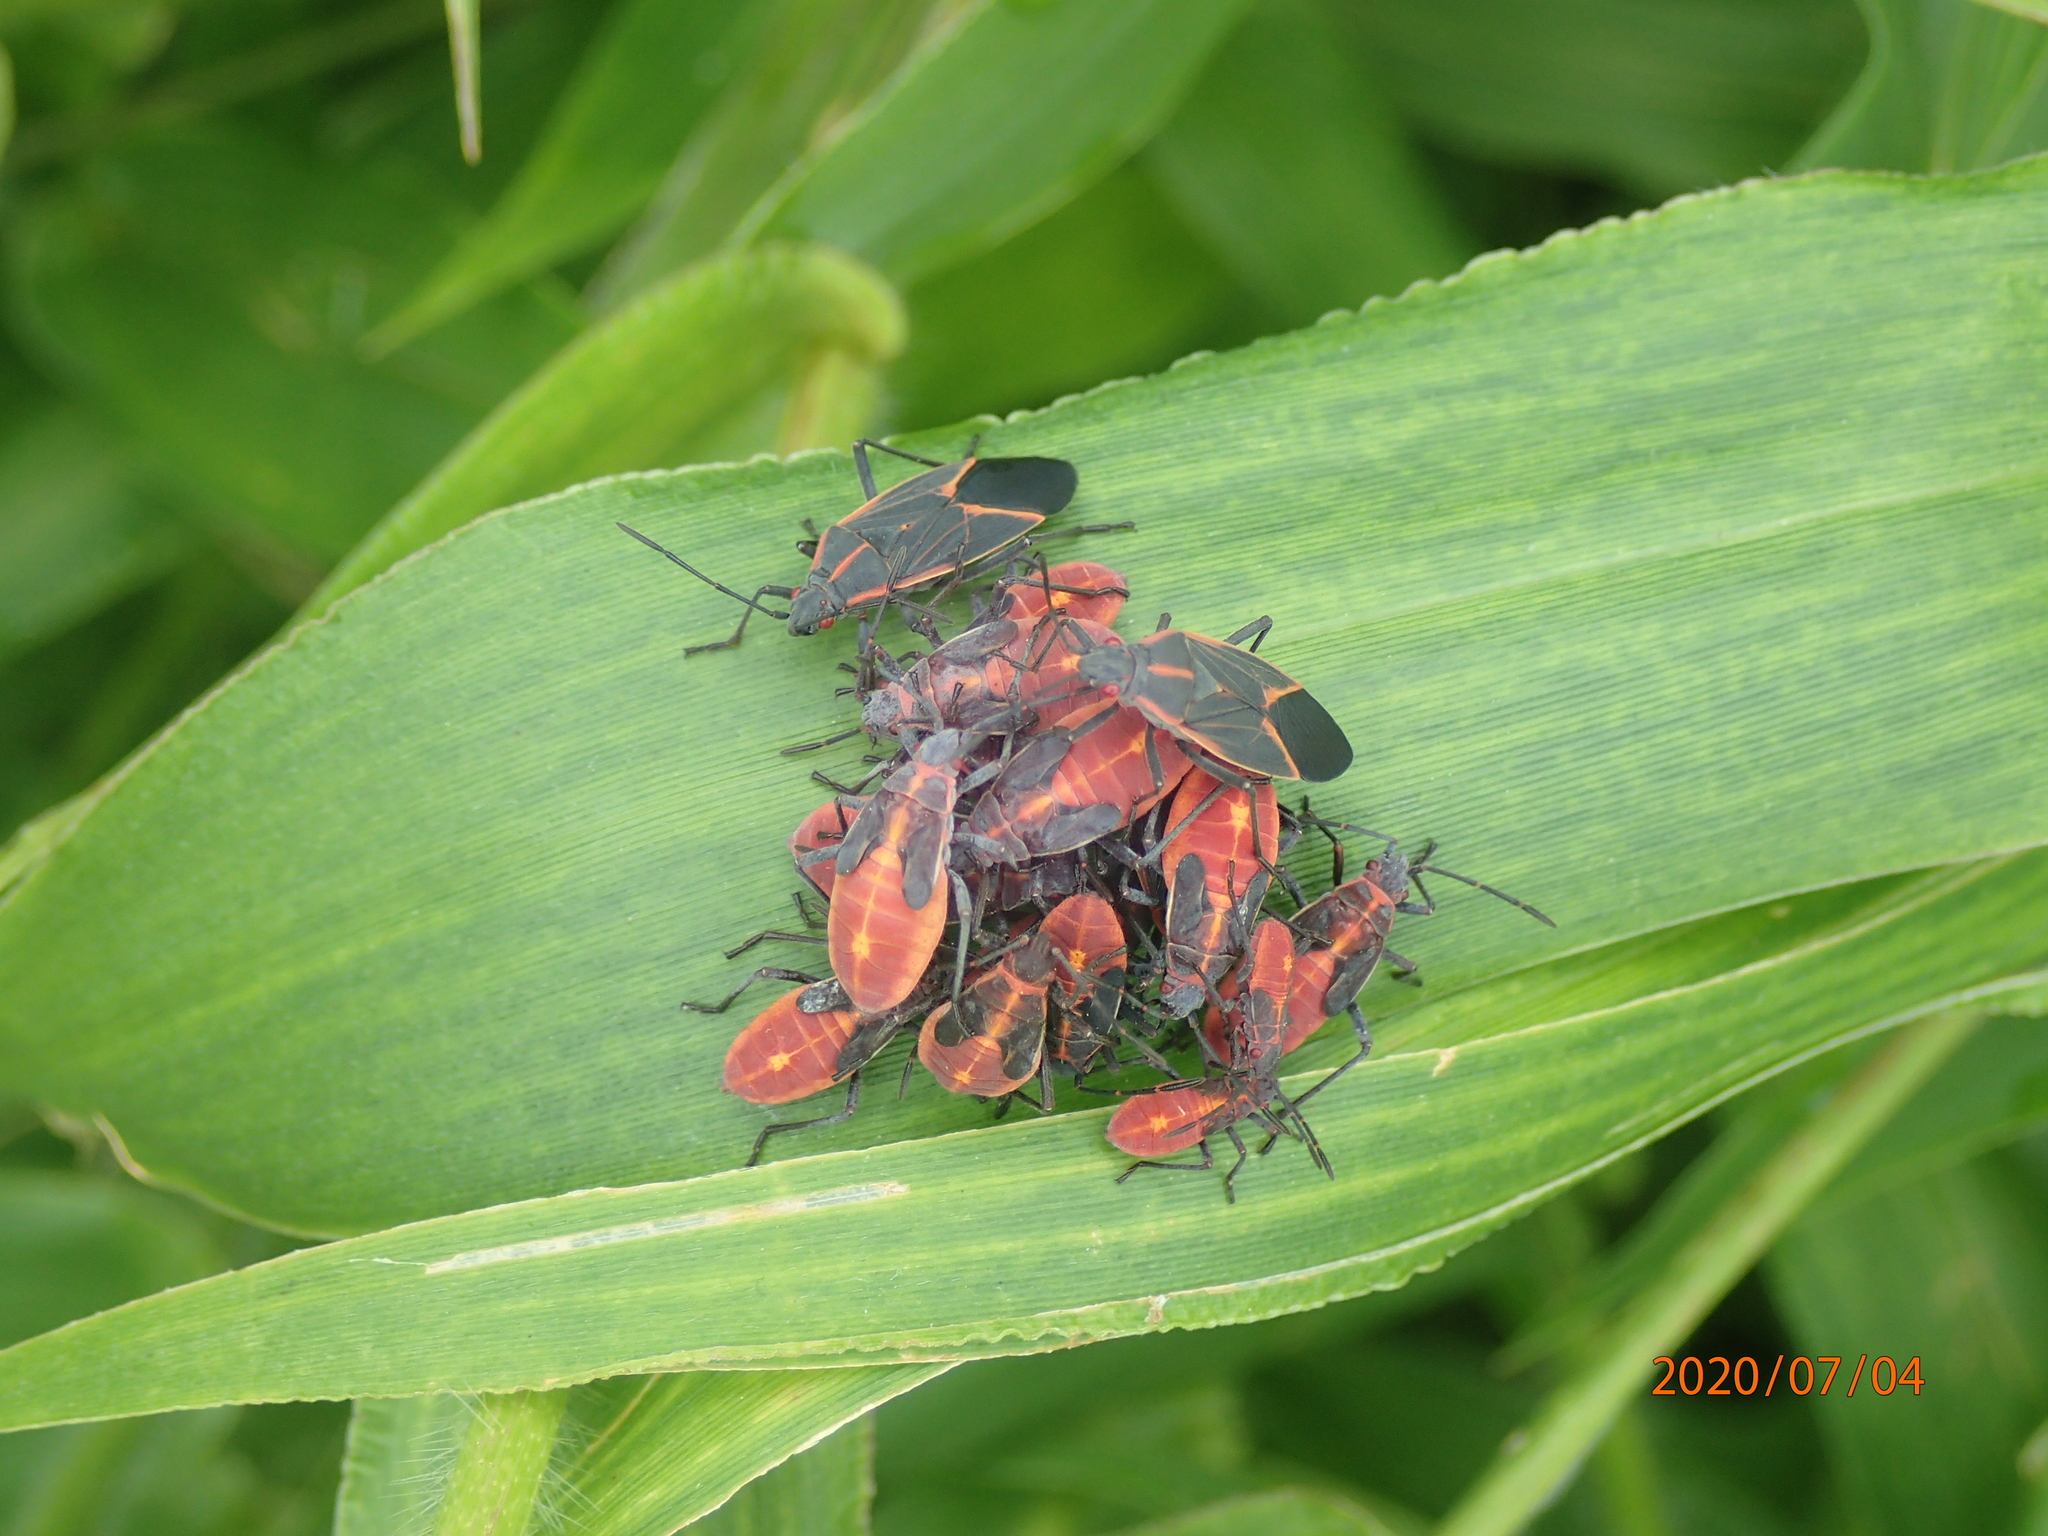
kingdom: Animalia
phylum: Arthropoda
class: Insecta
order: Hemiptera
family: Rhopalidae
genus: Boisea
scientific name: Boisea trivittata
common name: Boxelder bug
